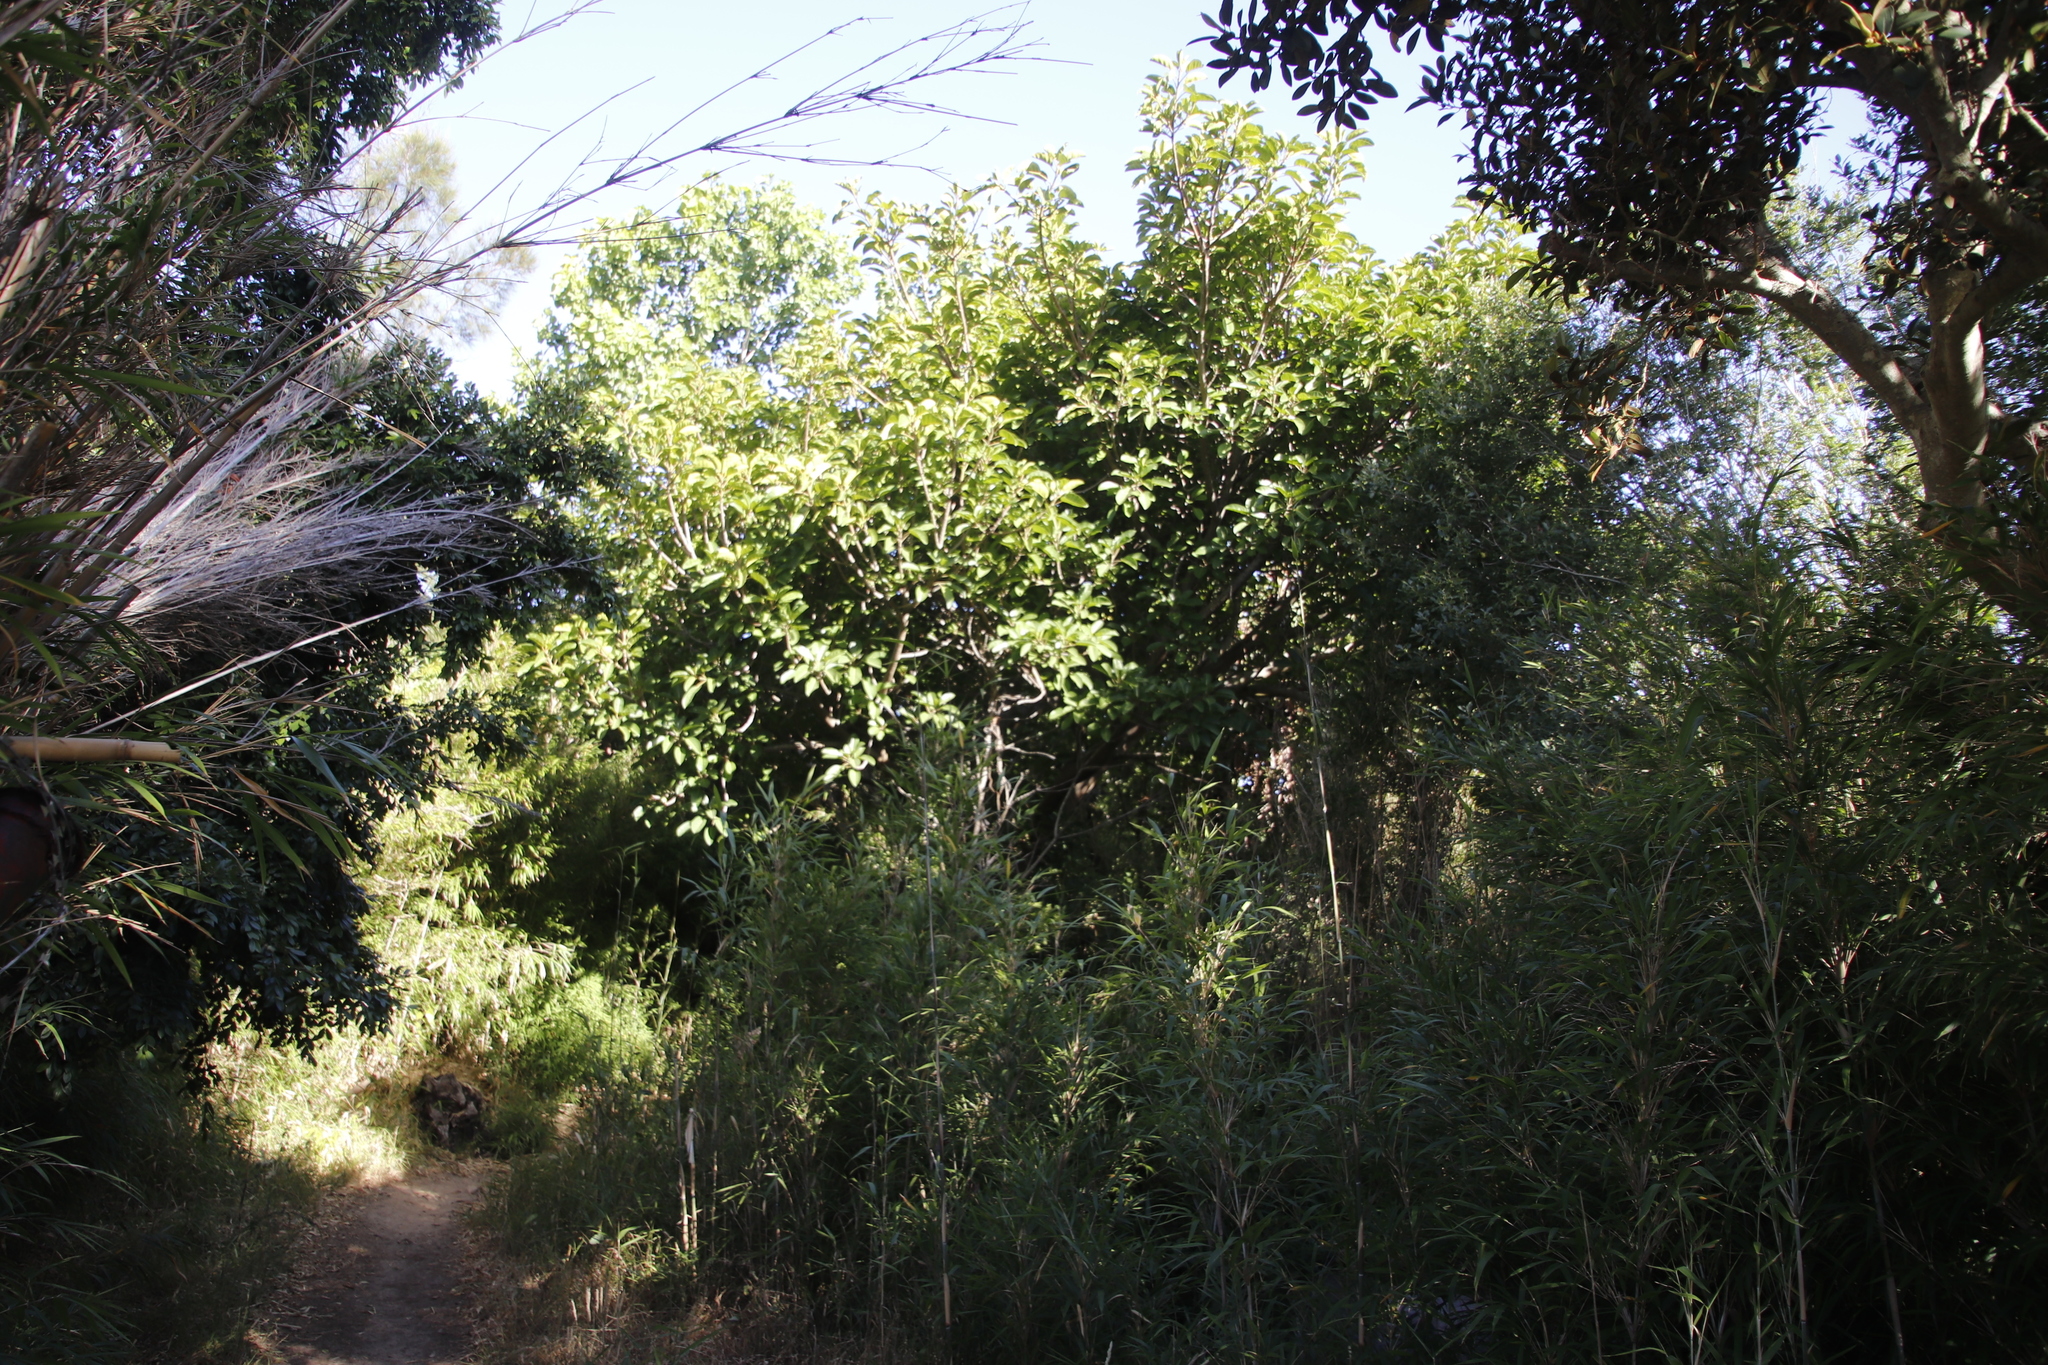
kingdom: Plantae
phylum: Tracheophyta
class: Magnoliopsida
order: Rosales
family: Moraceae
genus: Ficus
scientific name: Ficus lutea
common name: Giant-leaved fig
